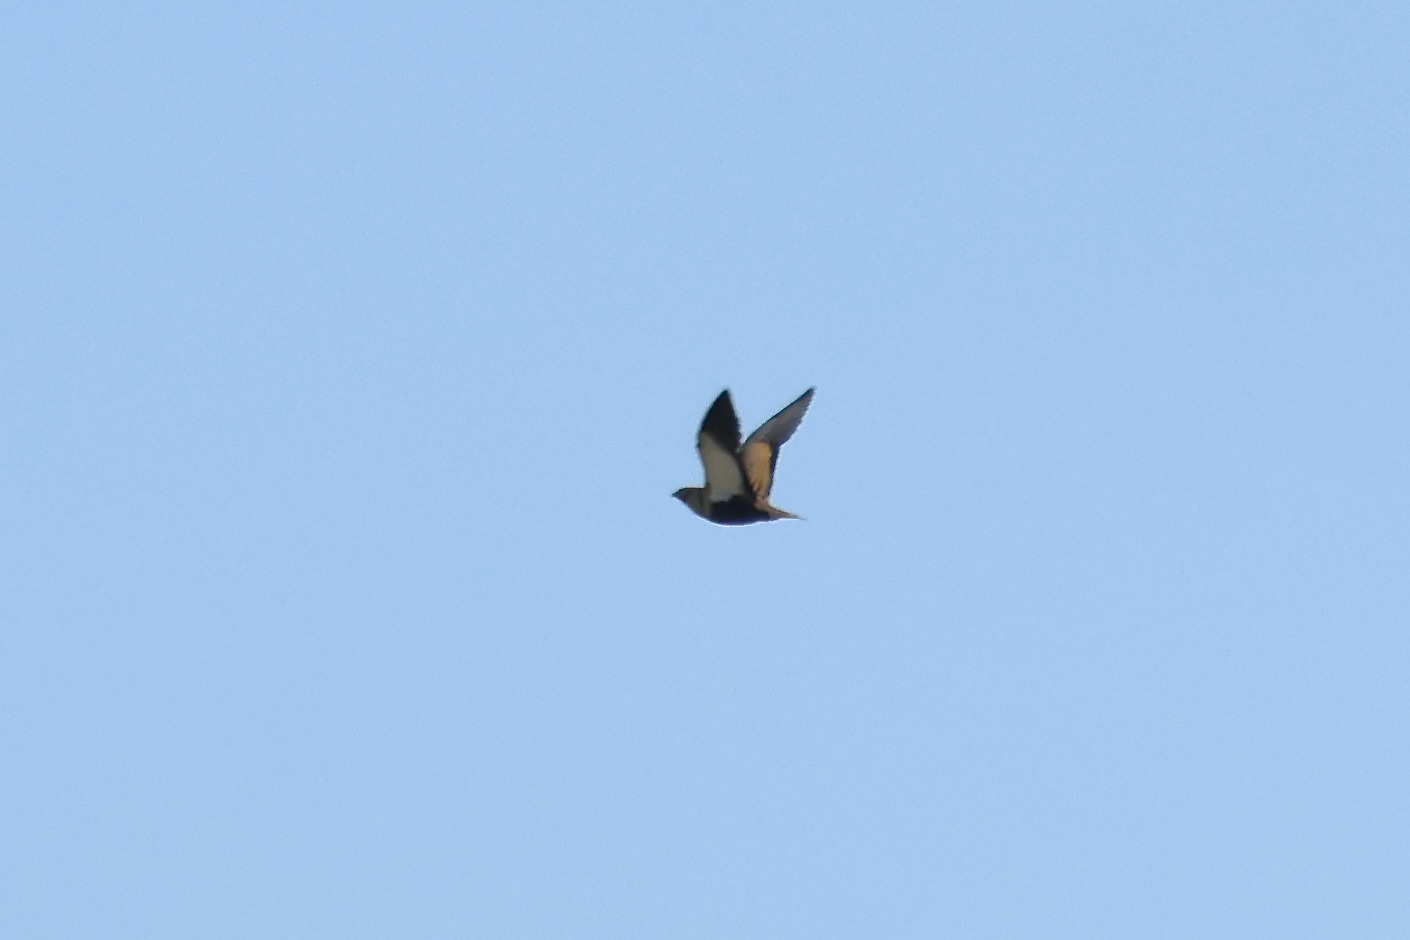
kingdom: Animalia
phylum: Chordata
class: Aves
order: Pteroclidiformes
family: Pteroclididae
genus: Pterocles
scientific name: Pterocles orientalis
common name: Black-bellied sandgrouse
